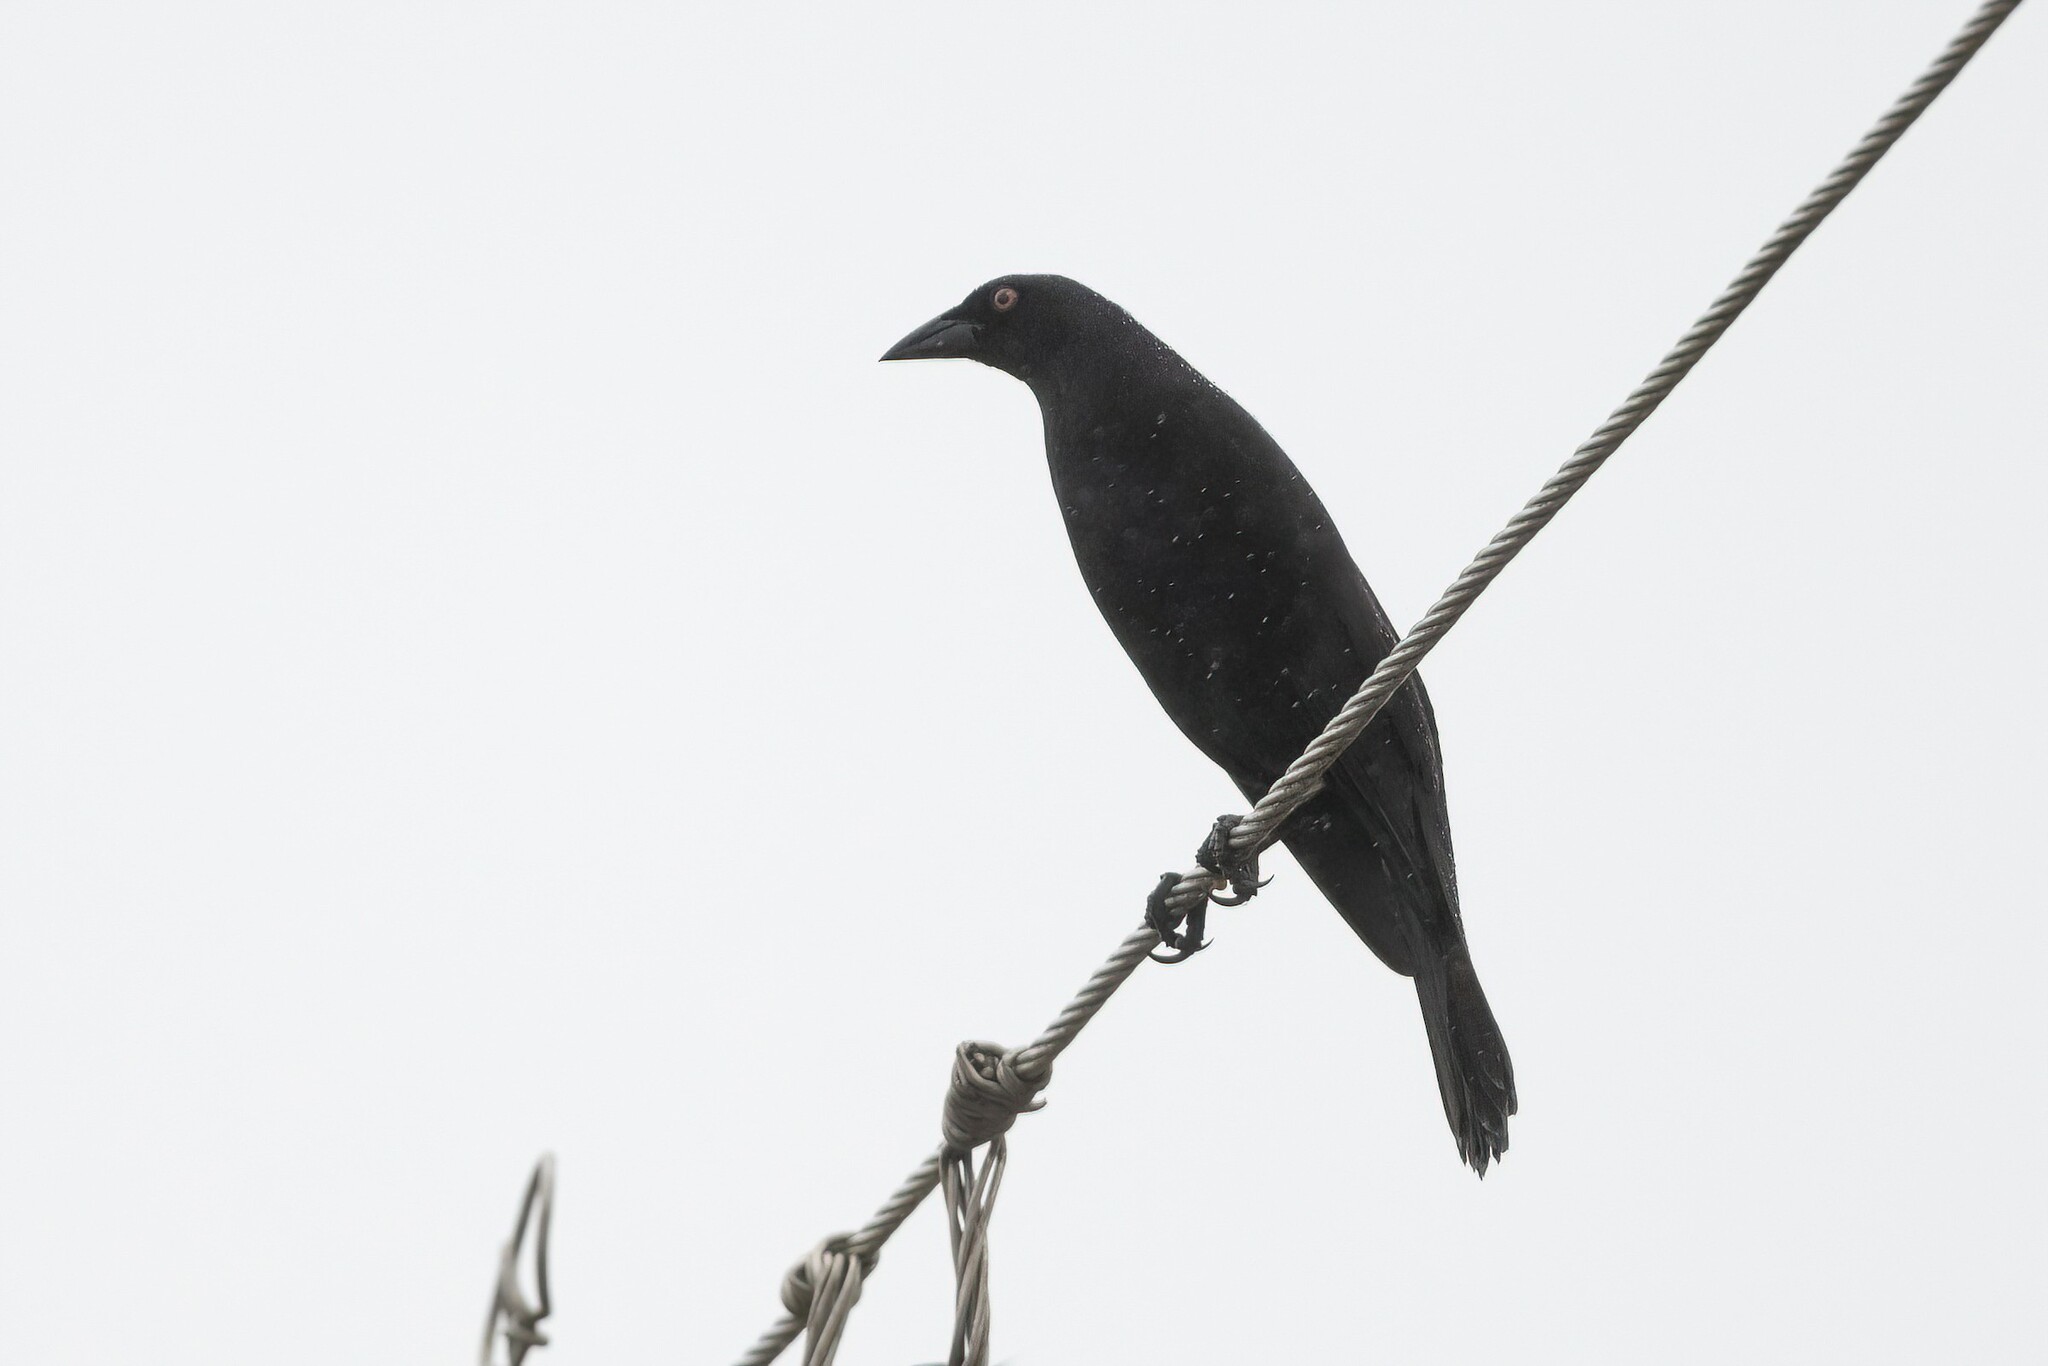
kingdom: Animalia
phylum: Chordata
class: Aves
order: Passeriformes
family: Icteridae
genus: Molothrus
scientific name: Molothrus oryzivorus
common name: Giant cowbird
